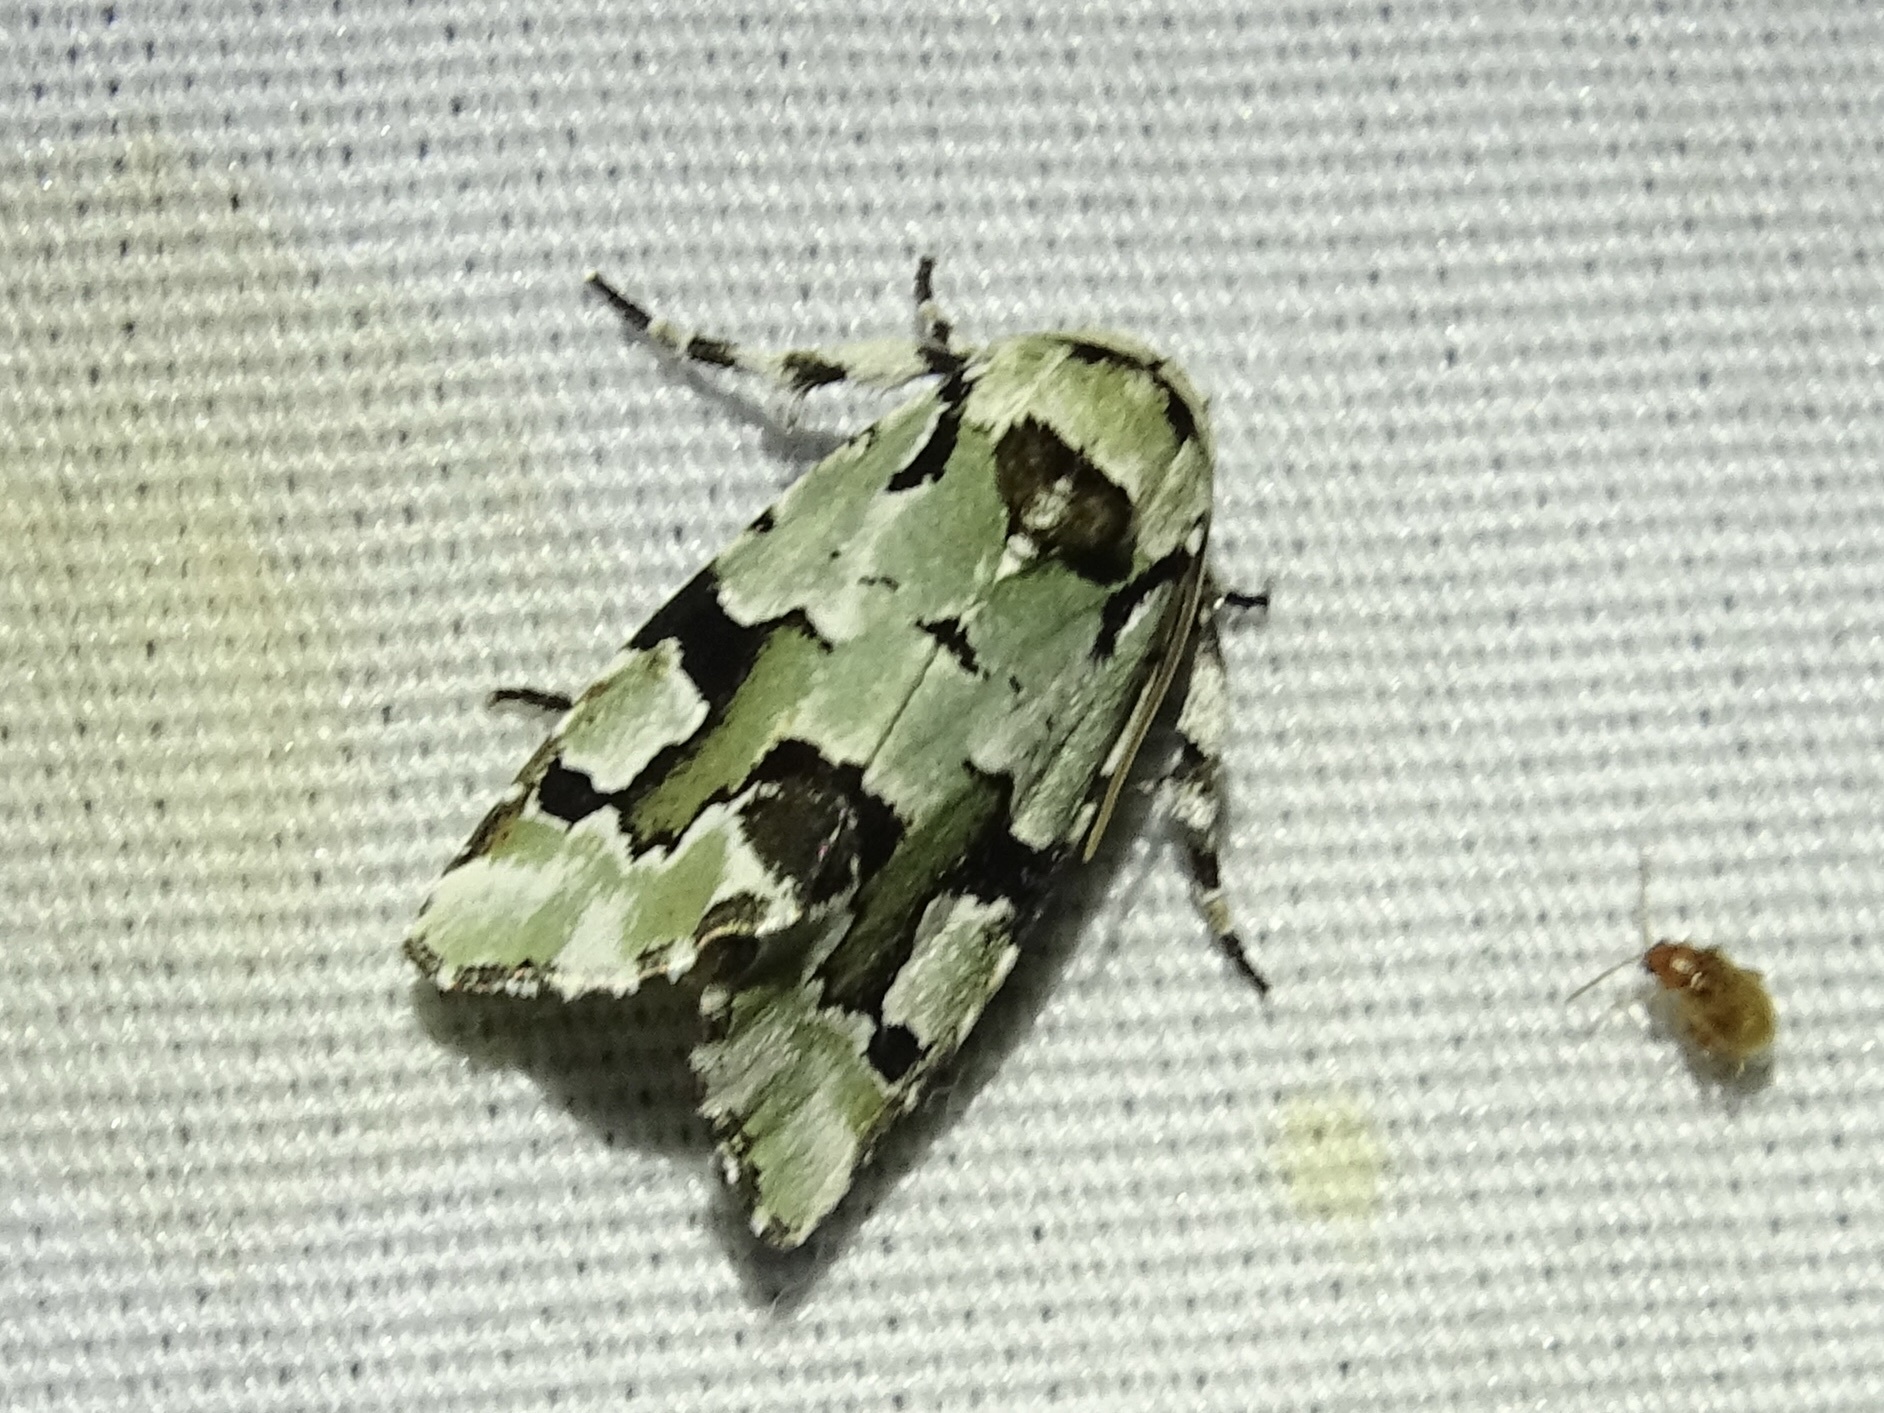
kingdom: Animalia
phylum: Arthropoda
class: Insecta
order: Lepidoptera
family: Noctuidae
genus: Emarginea
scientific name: Emarginea percara
